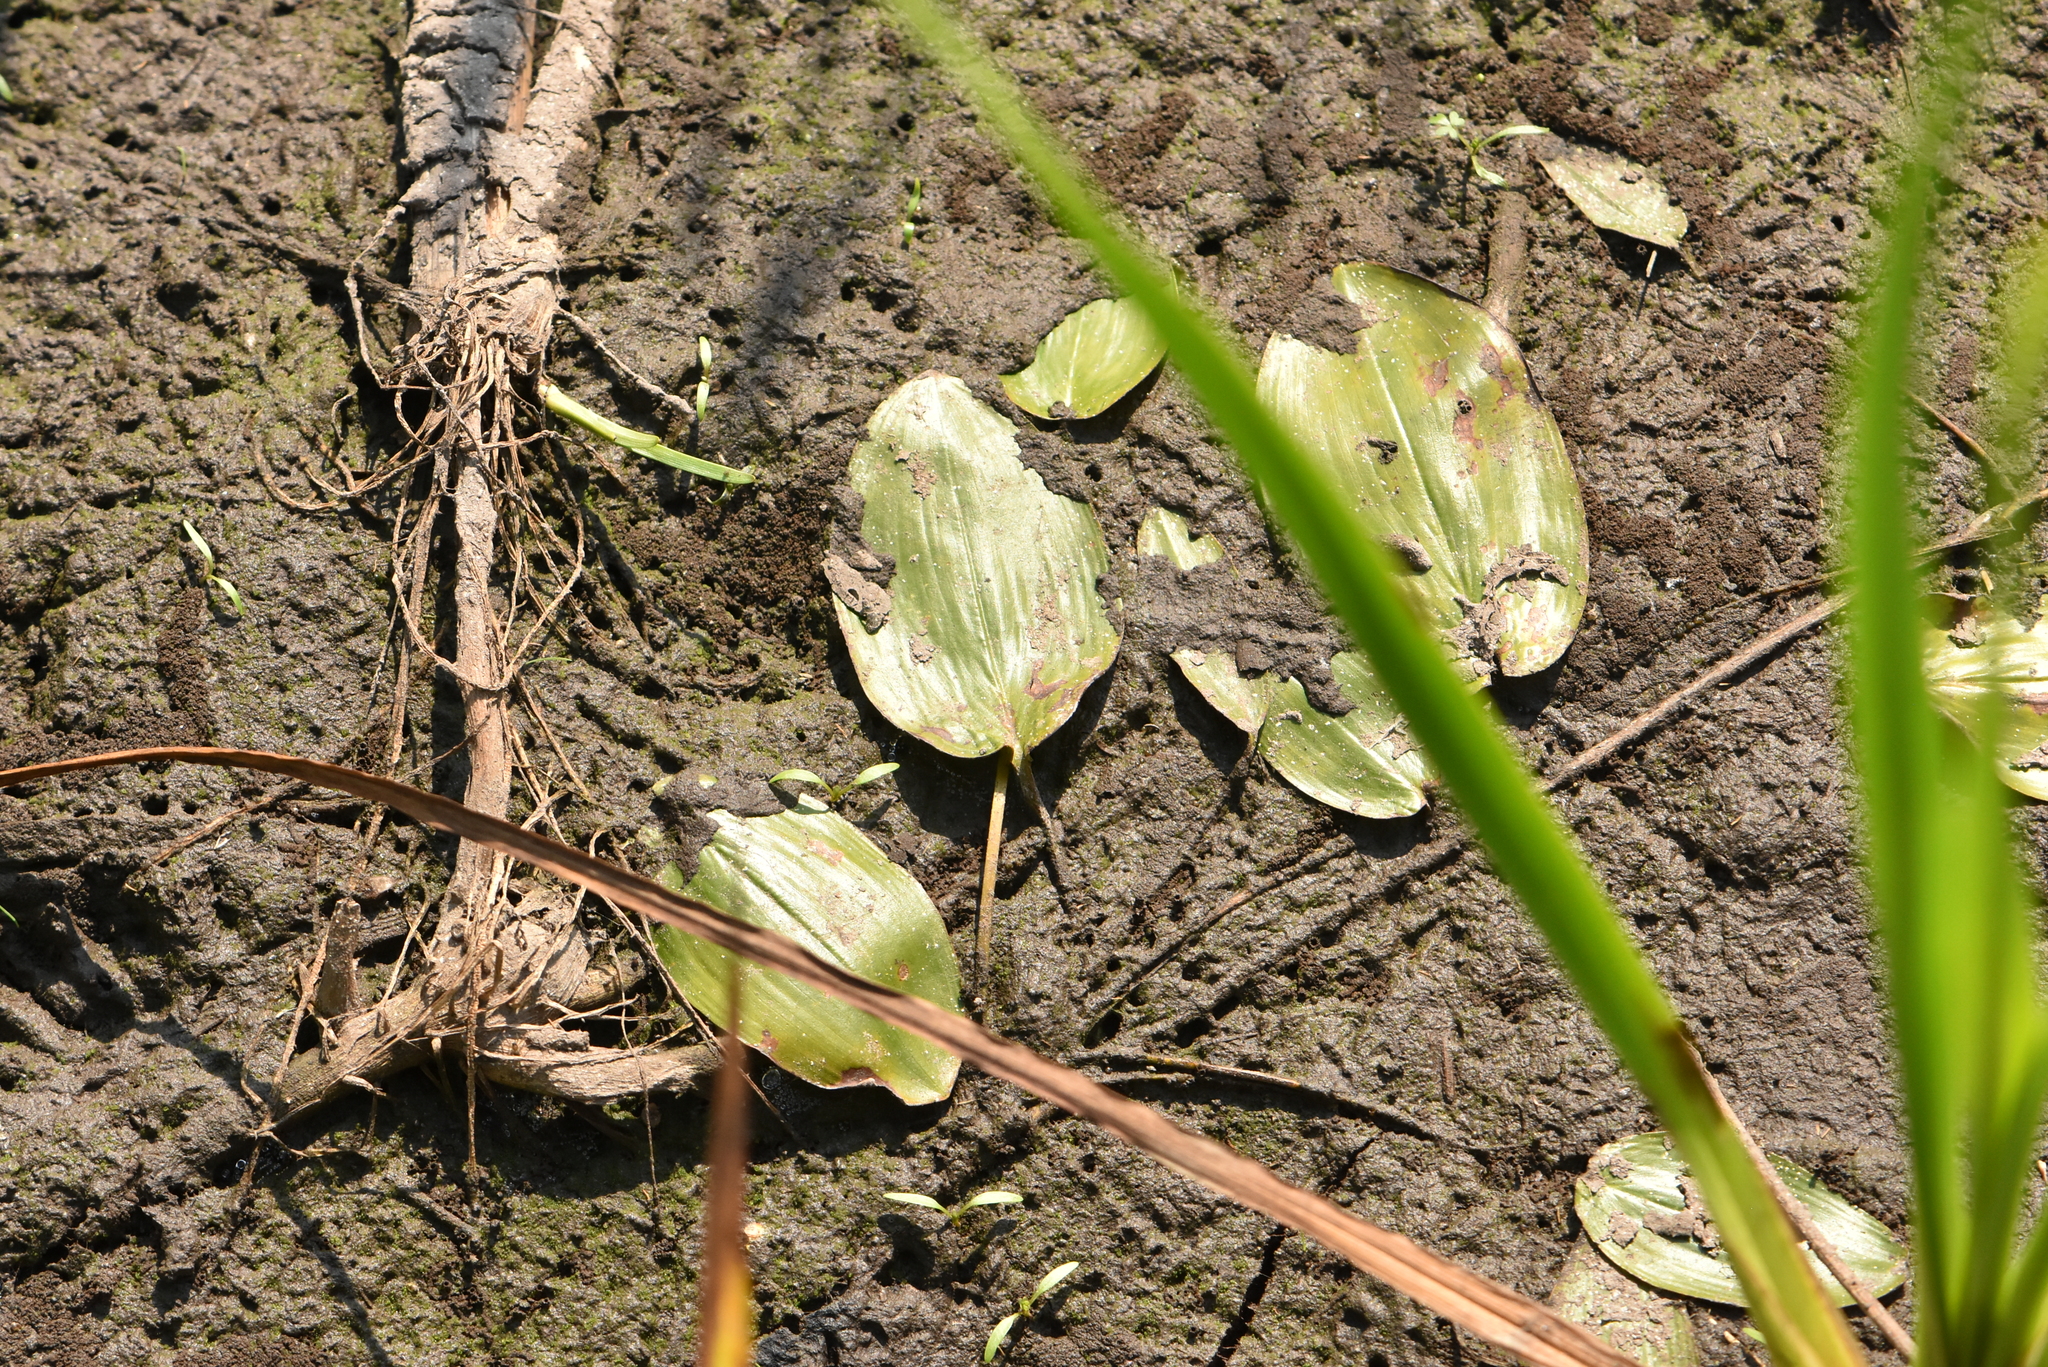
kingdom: Plantae
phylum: Tracheophyta
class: Liliopsida
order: Alismatales
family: Potamogetonaceae
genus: Potamogeton
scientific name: Potamogeton natans
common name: Broad-leaved pondweed
